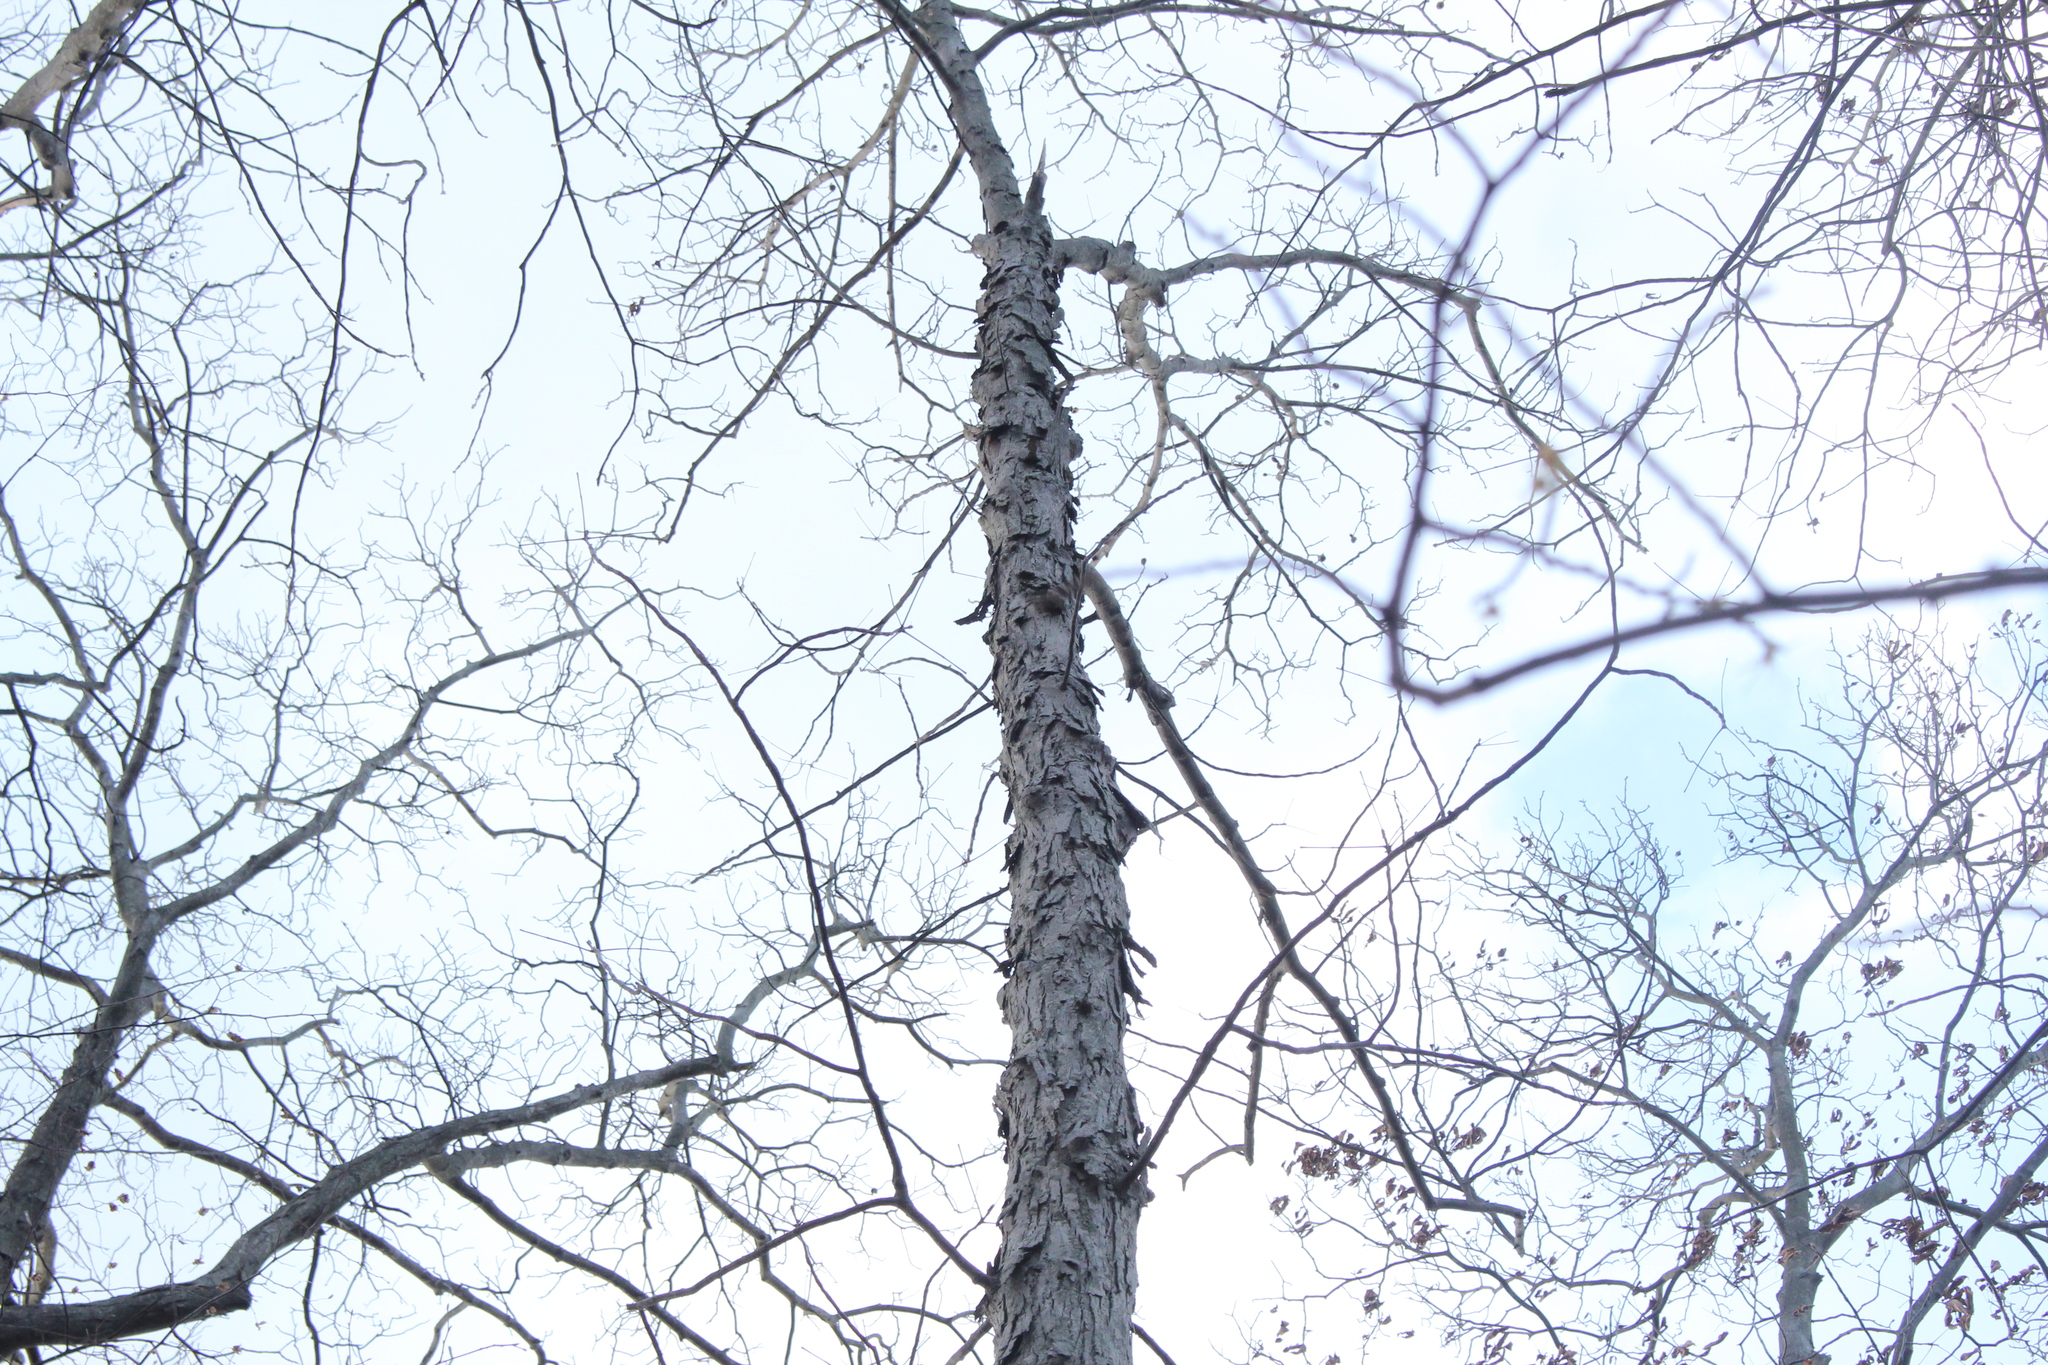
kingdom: Plantae
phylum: Tracheophyta
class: Magnoliopsida
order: Fagales
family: Juglandaceae
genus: Carya
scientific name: Carya ovata
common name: Shagbark hickory
